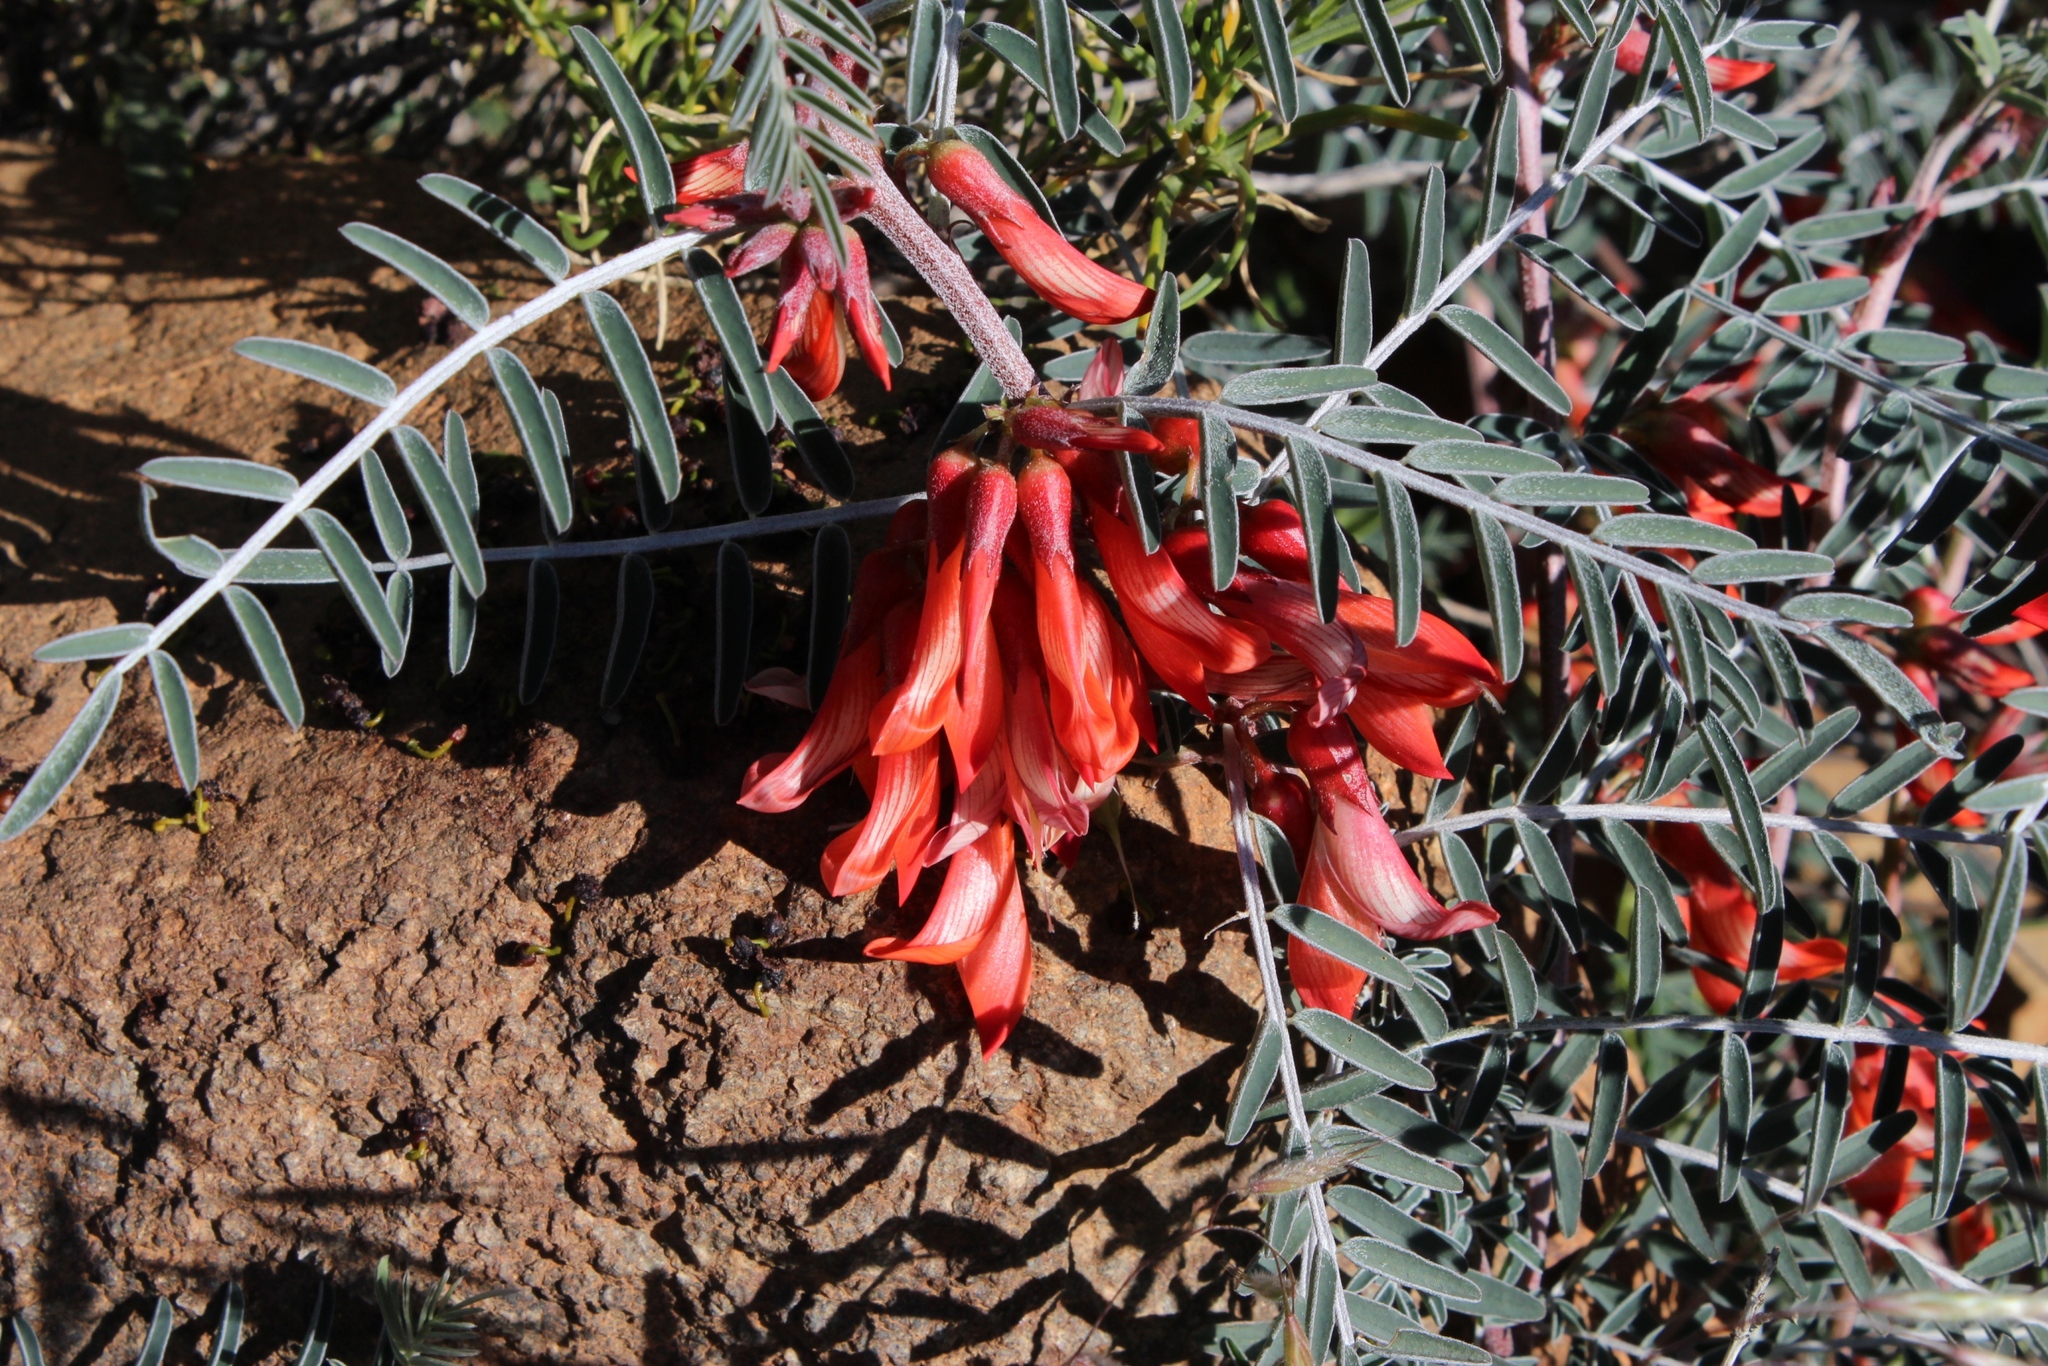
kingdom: Plantae
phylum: Tracheophyta
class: Magnoliopsida
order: Fabales
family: Fabaceae
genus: Lessertia
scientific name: Lessertia frutescens
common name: Balloon-pea
